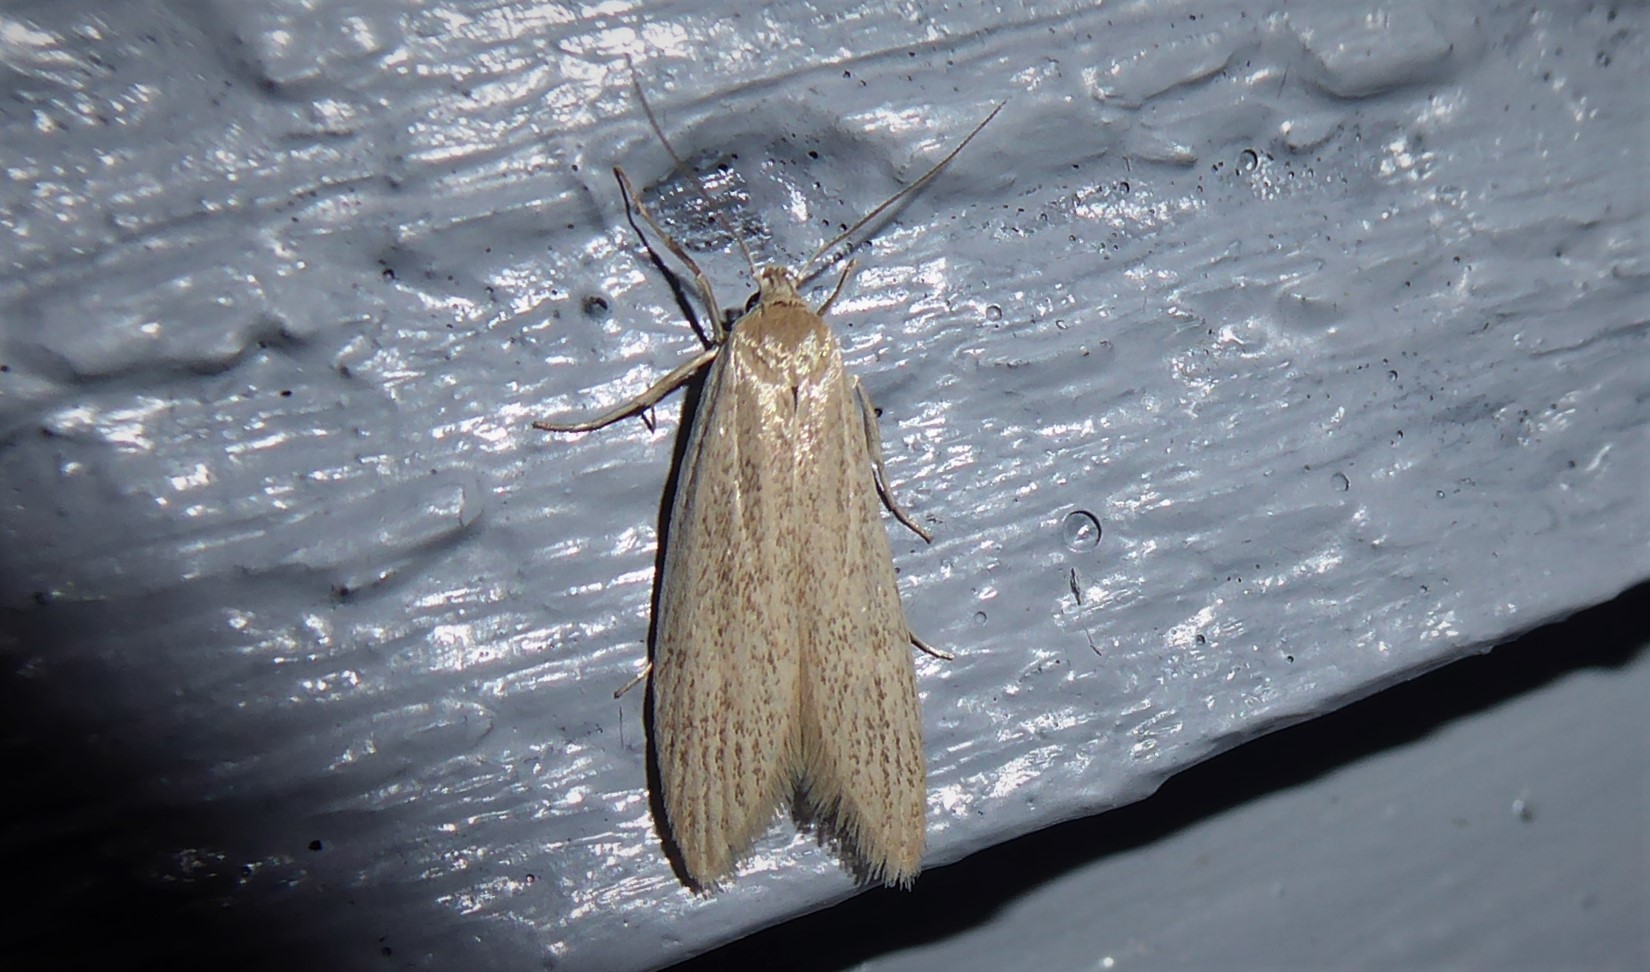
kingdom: Animalia
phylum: Arthropoda
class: Insecta
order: Lepidoptera
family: Xyloryctidae
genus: Scieropepla
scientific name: Scieropepla typhicola
